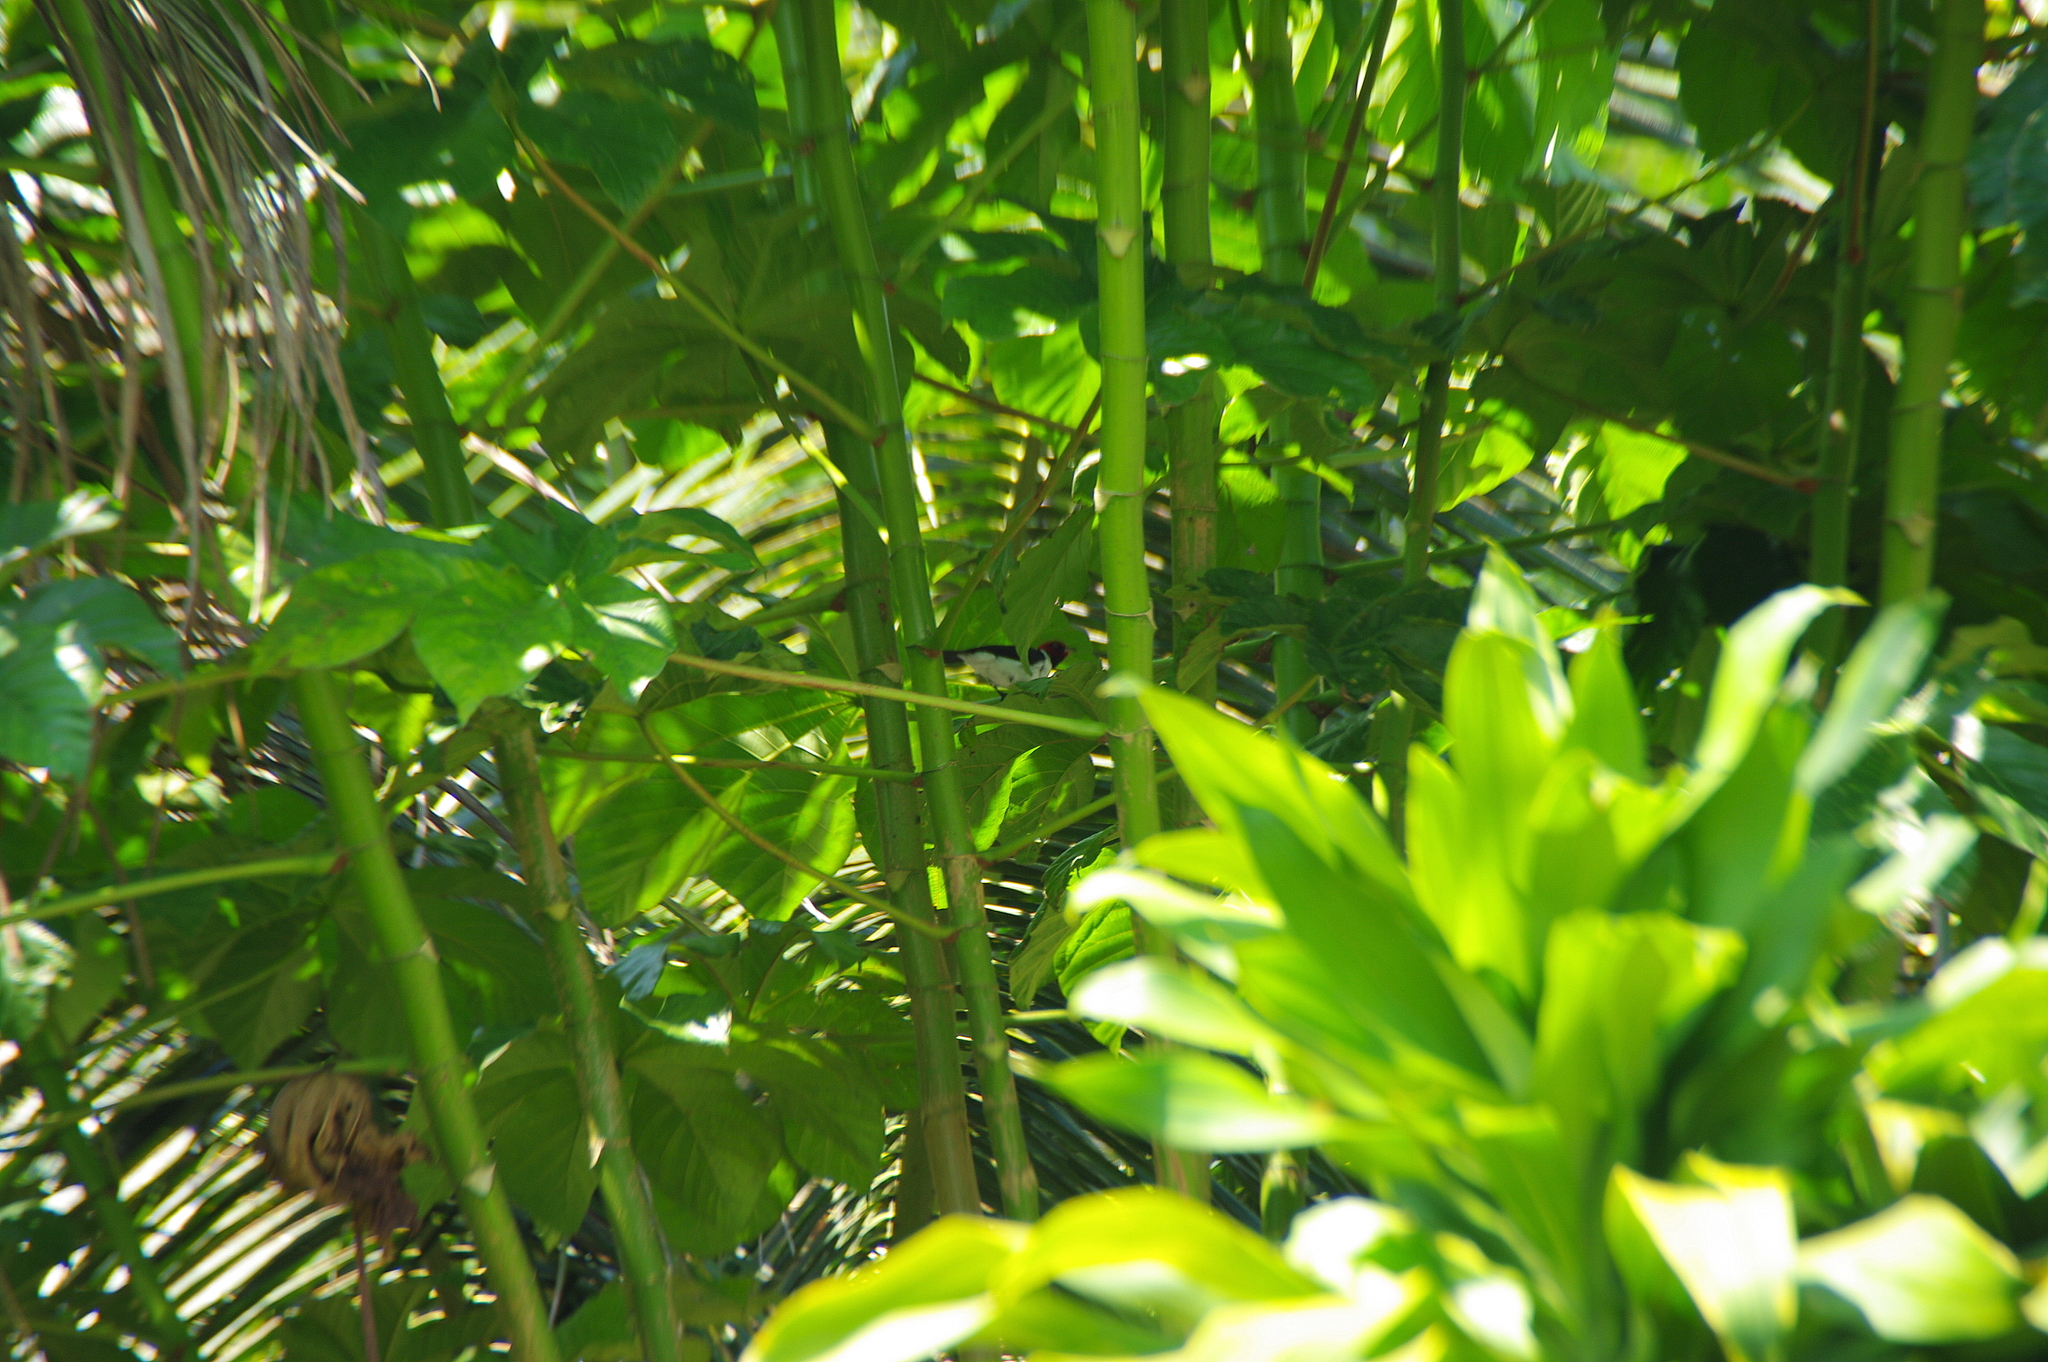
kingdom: Animalia
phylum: Chordata
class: Aves
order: Passeriformes
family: Thraupidae
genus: Paroaria
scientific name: Paroaria gularis
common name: Red-capped cardinal
